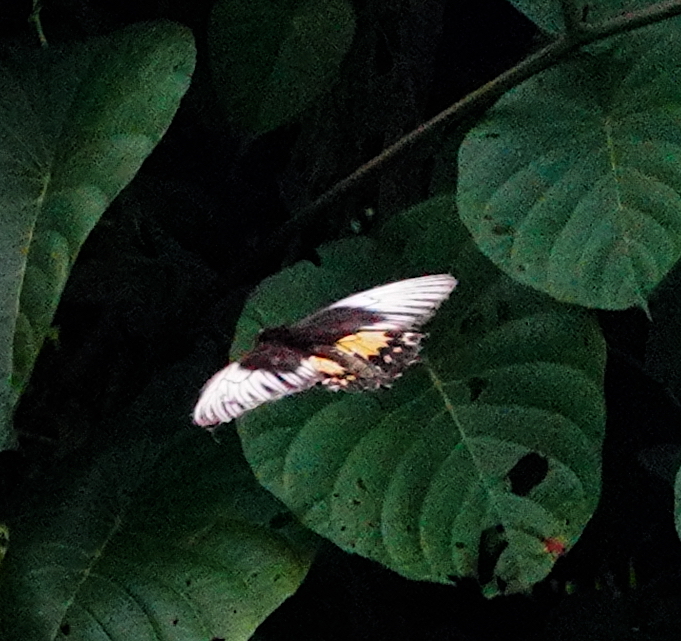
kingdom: Animalia
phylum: Arthropoda
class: Insecta
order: Lepidoptera
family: Papilionidae
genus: Troides
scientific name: Troides oblongomaculatus
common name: Eastern yellow birdwing
